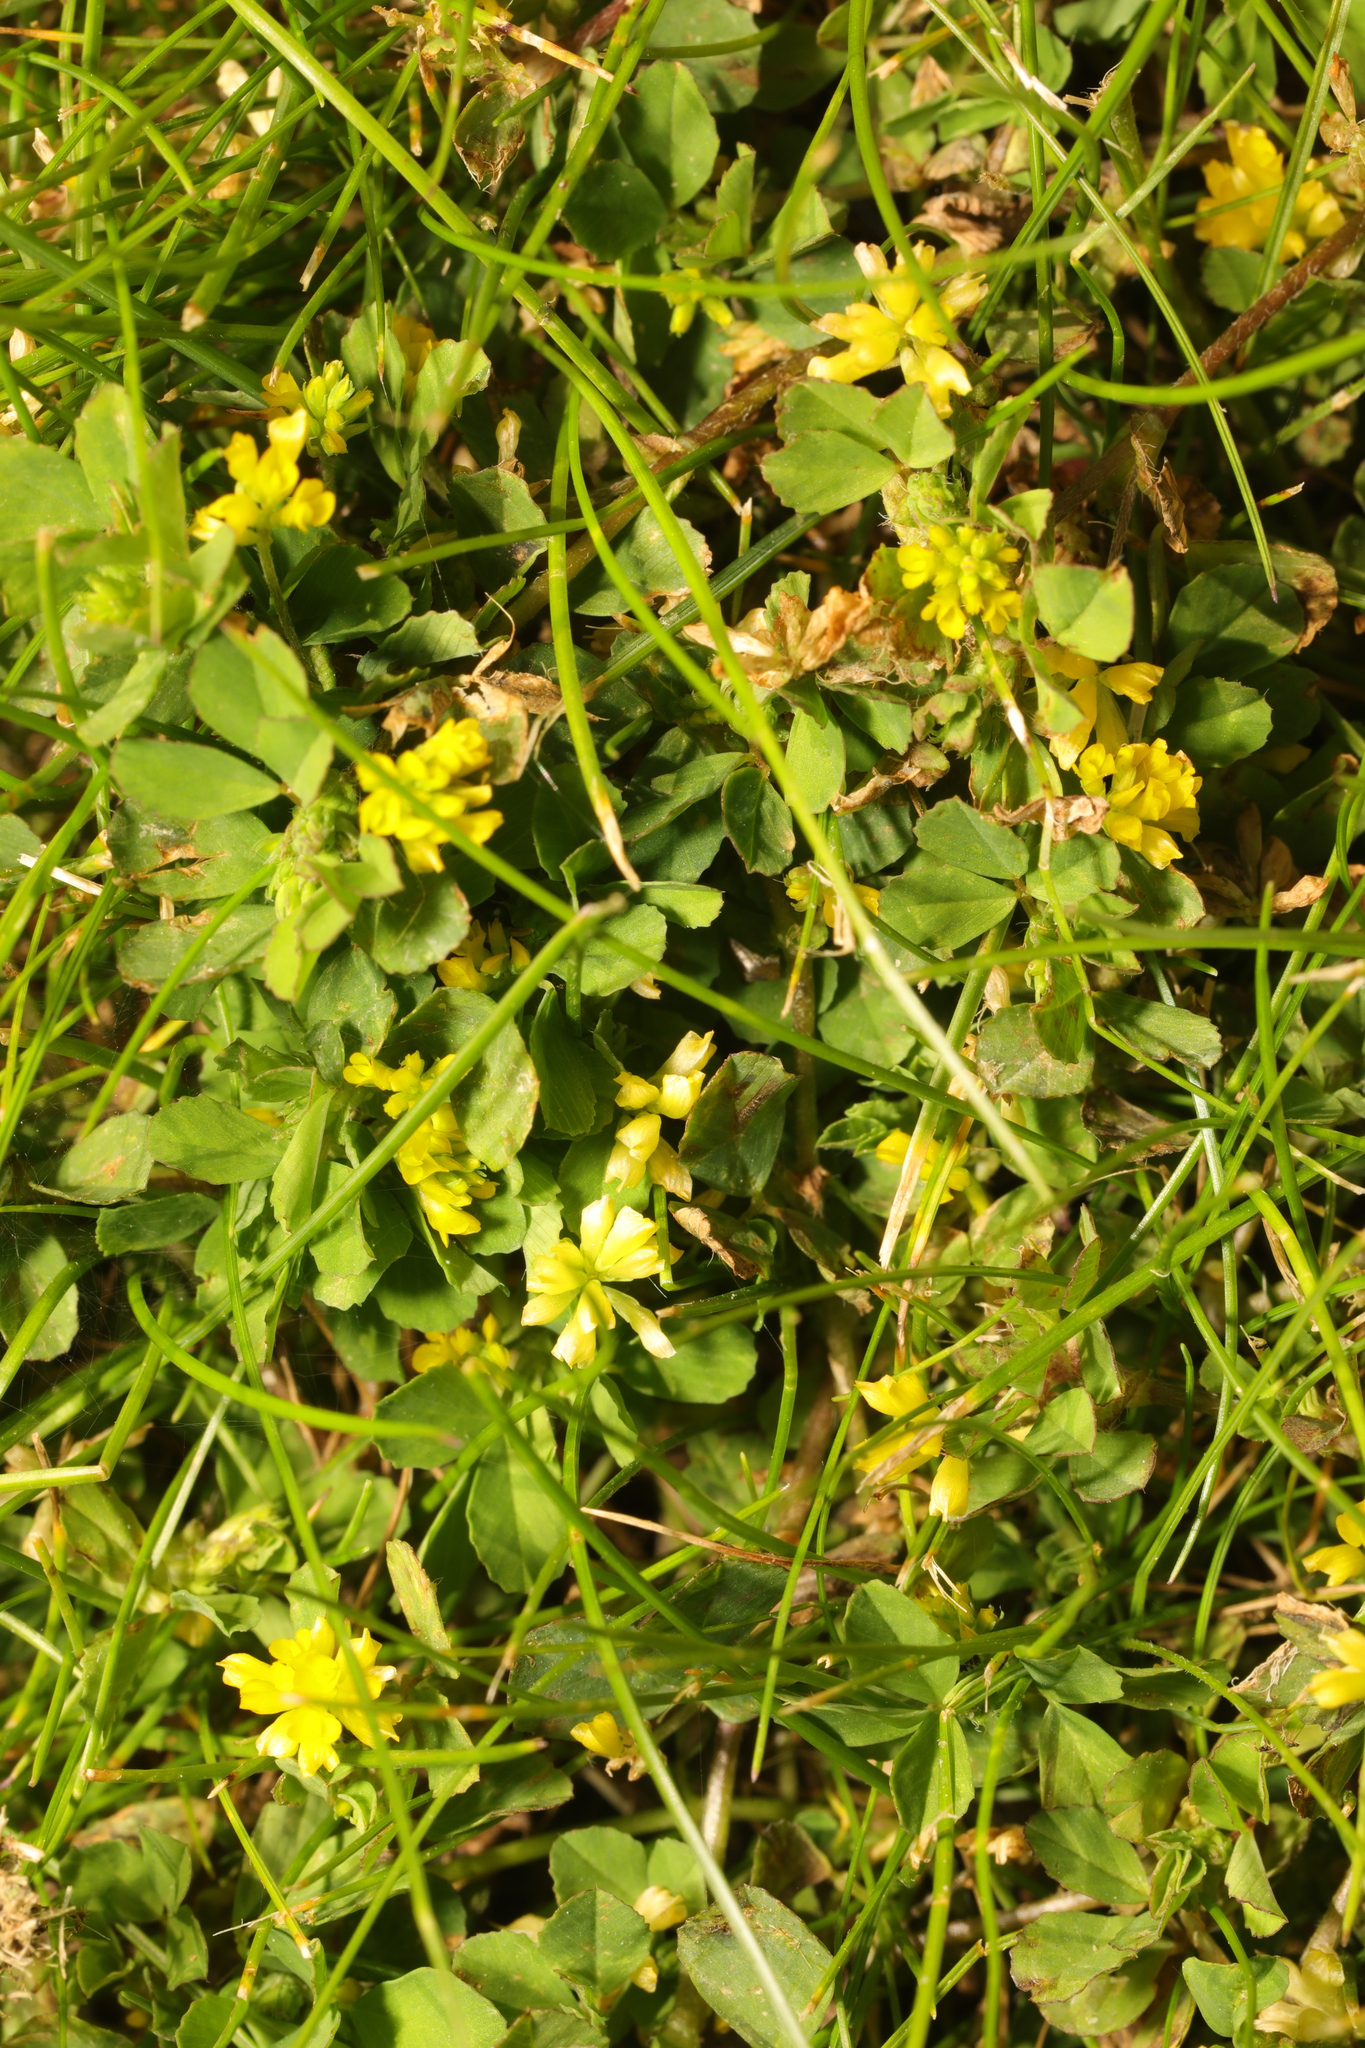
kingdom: Plantae
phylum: Tracheophyta
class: Magnoliopsida
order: Fabales
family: Fabaceae
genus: Trifolium
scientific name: Trifolium dubium
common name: Suckling clover
